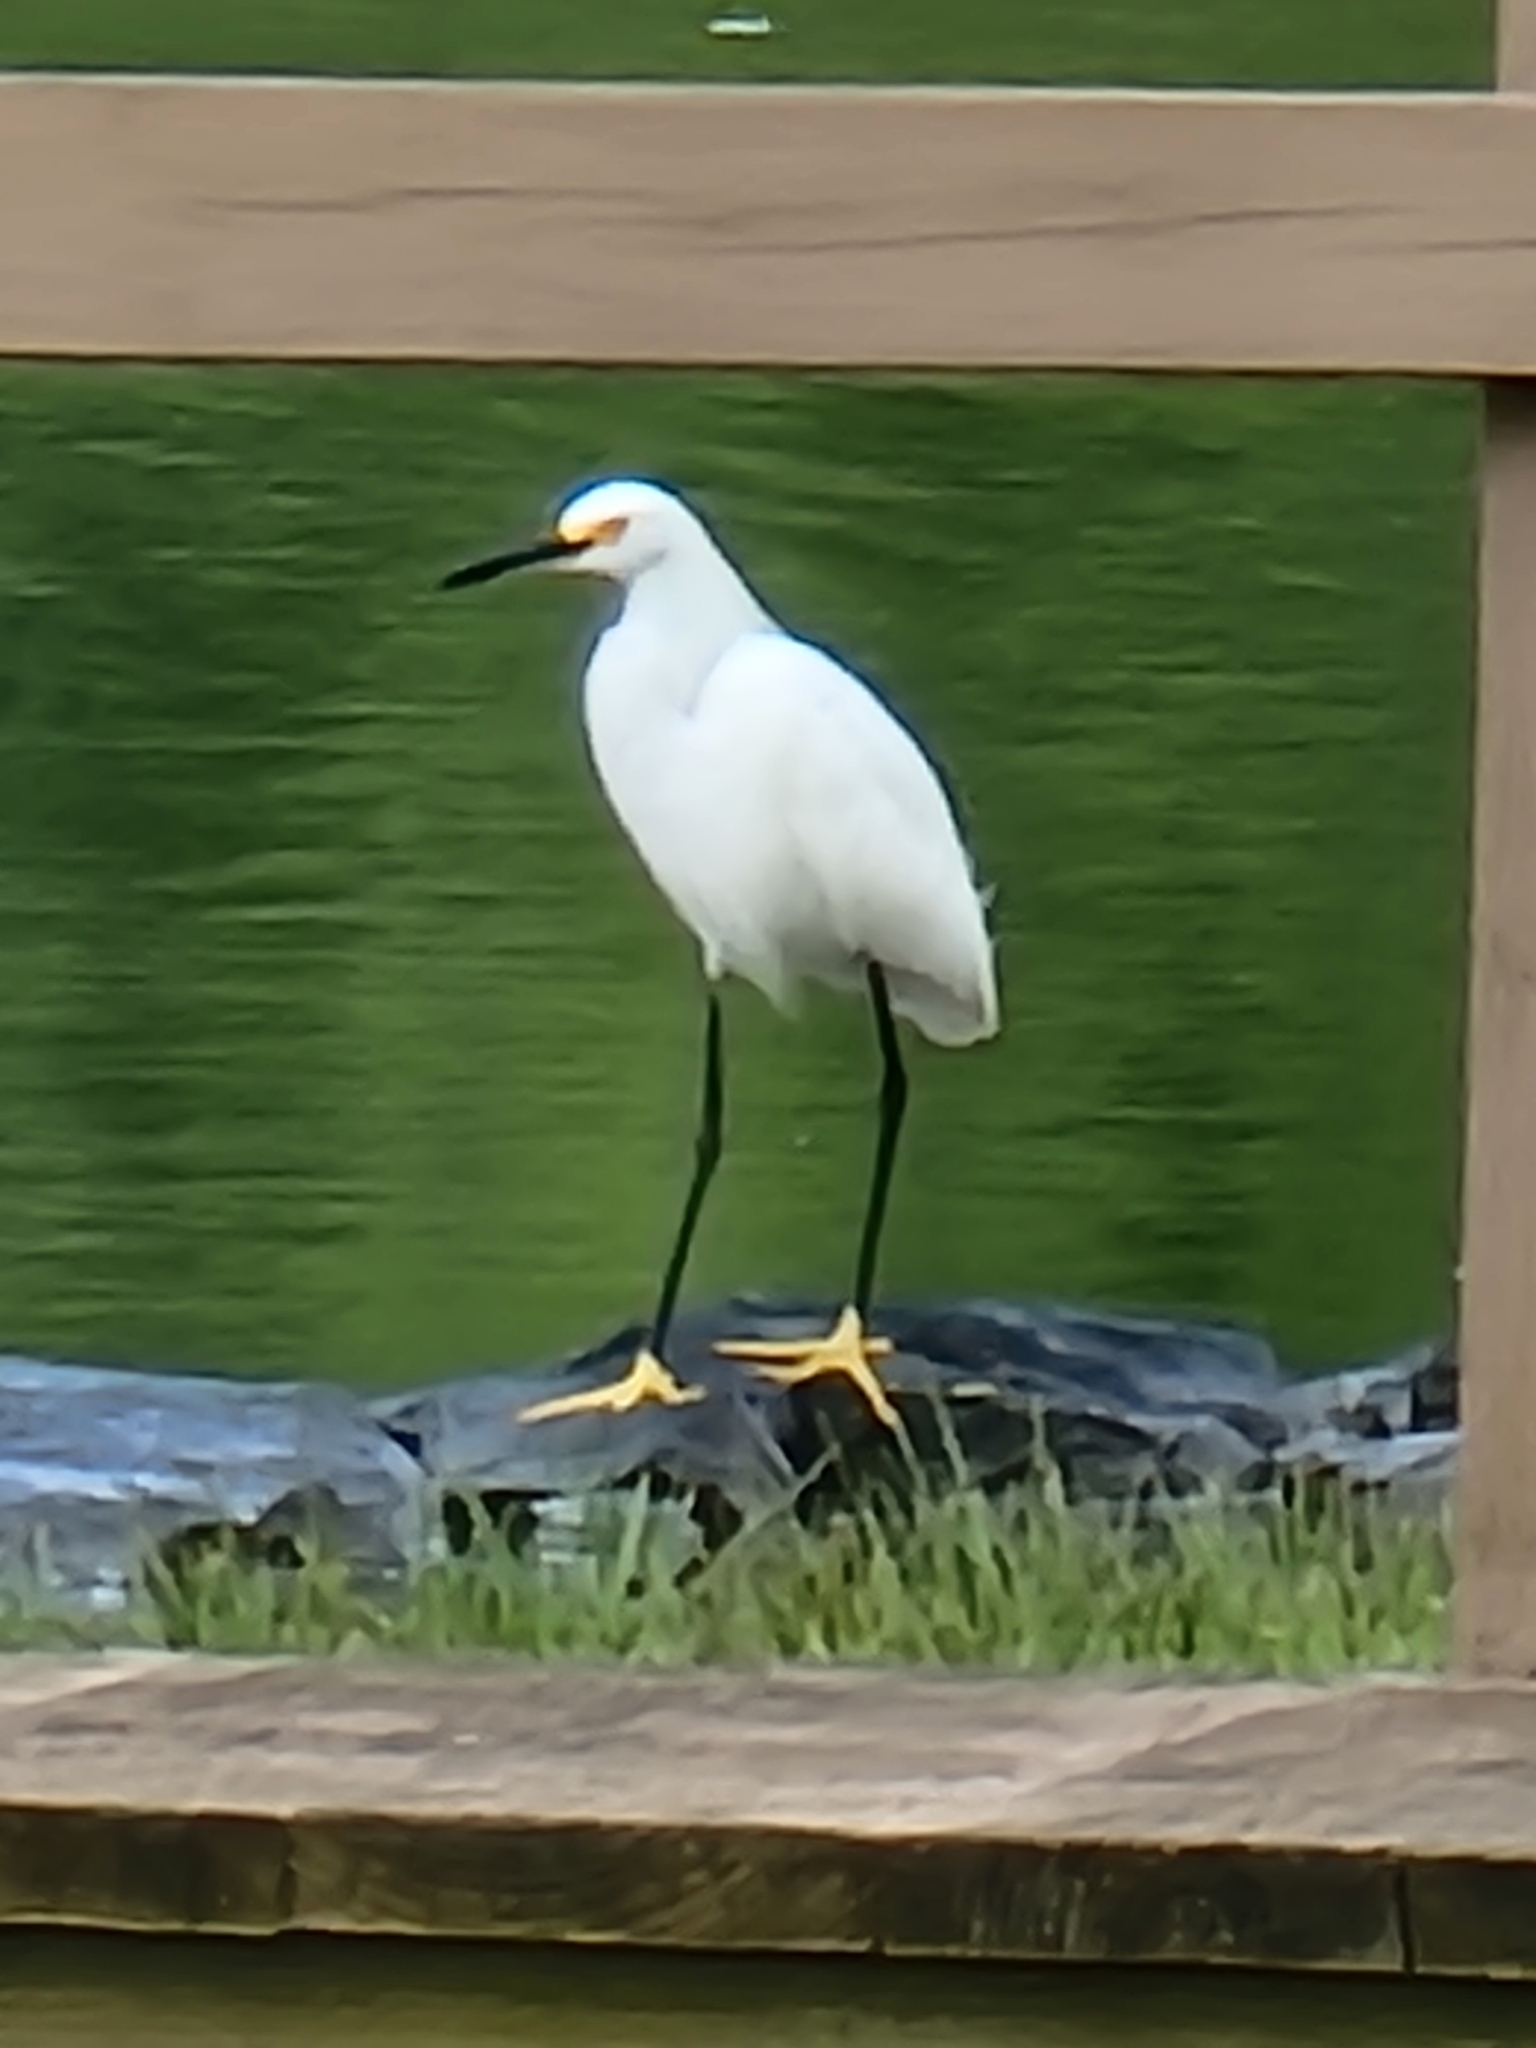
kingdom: Animalia
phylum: Chordata
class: Aves
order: Pelecaniformes
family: Ardeidae
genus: Egretta
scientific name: Egretta thula
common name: Snowy egret
